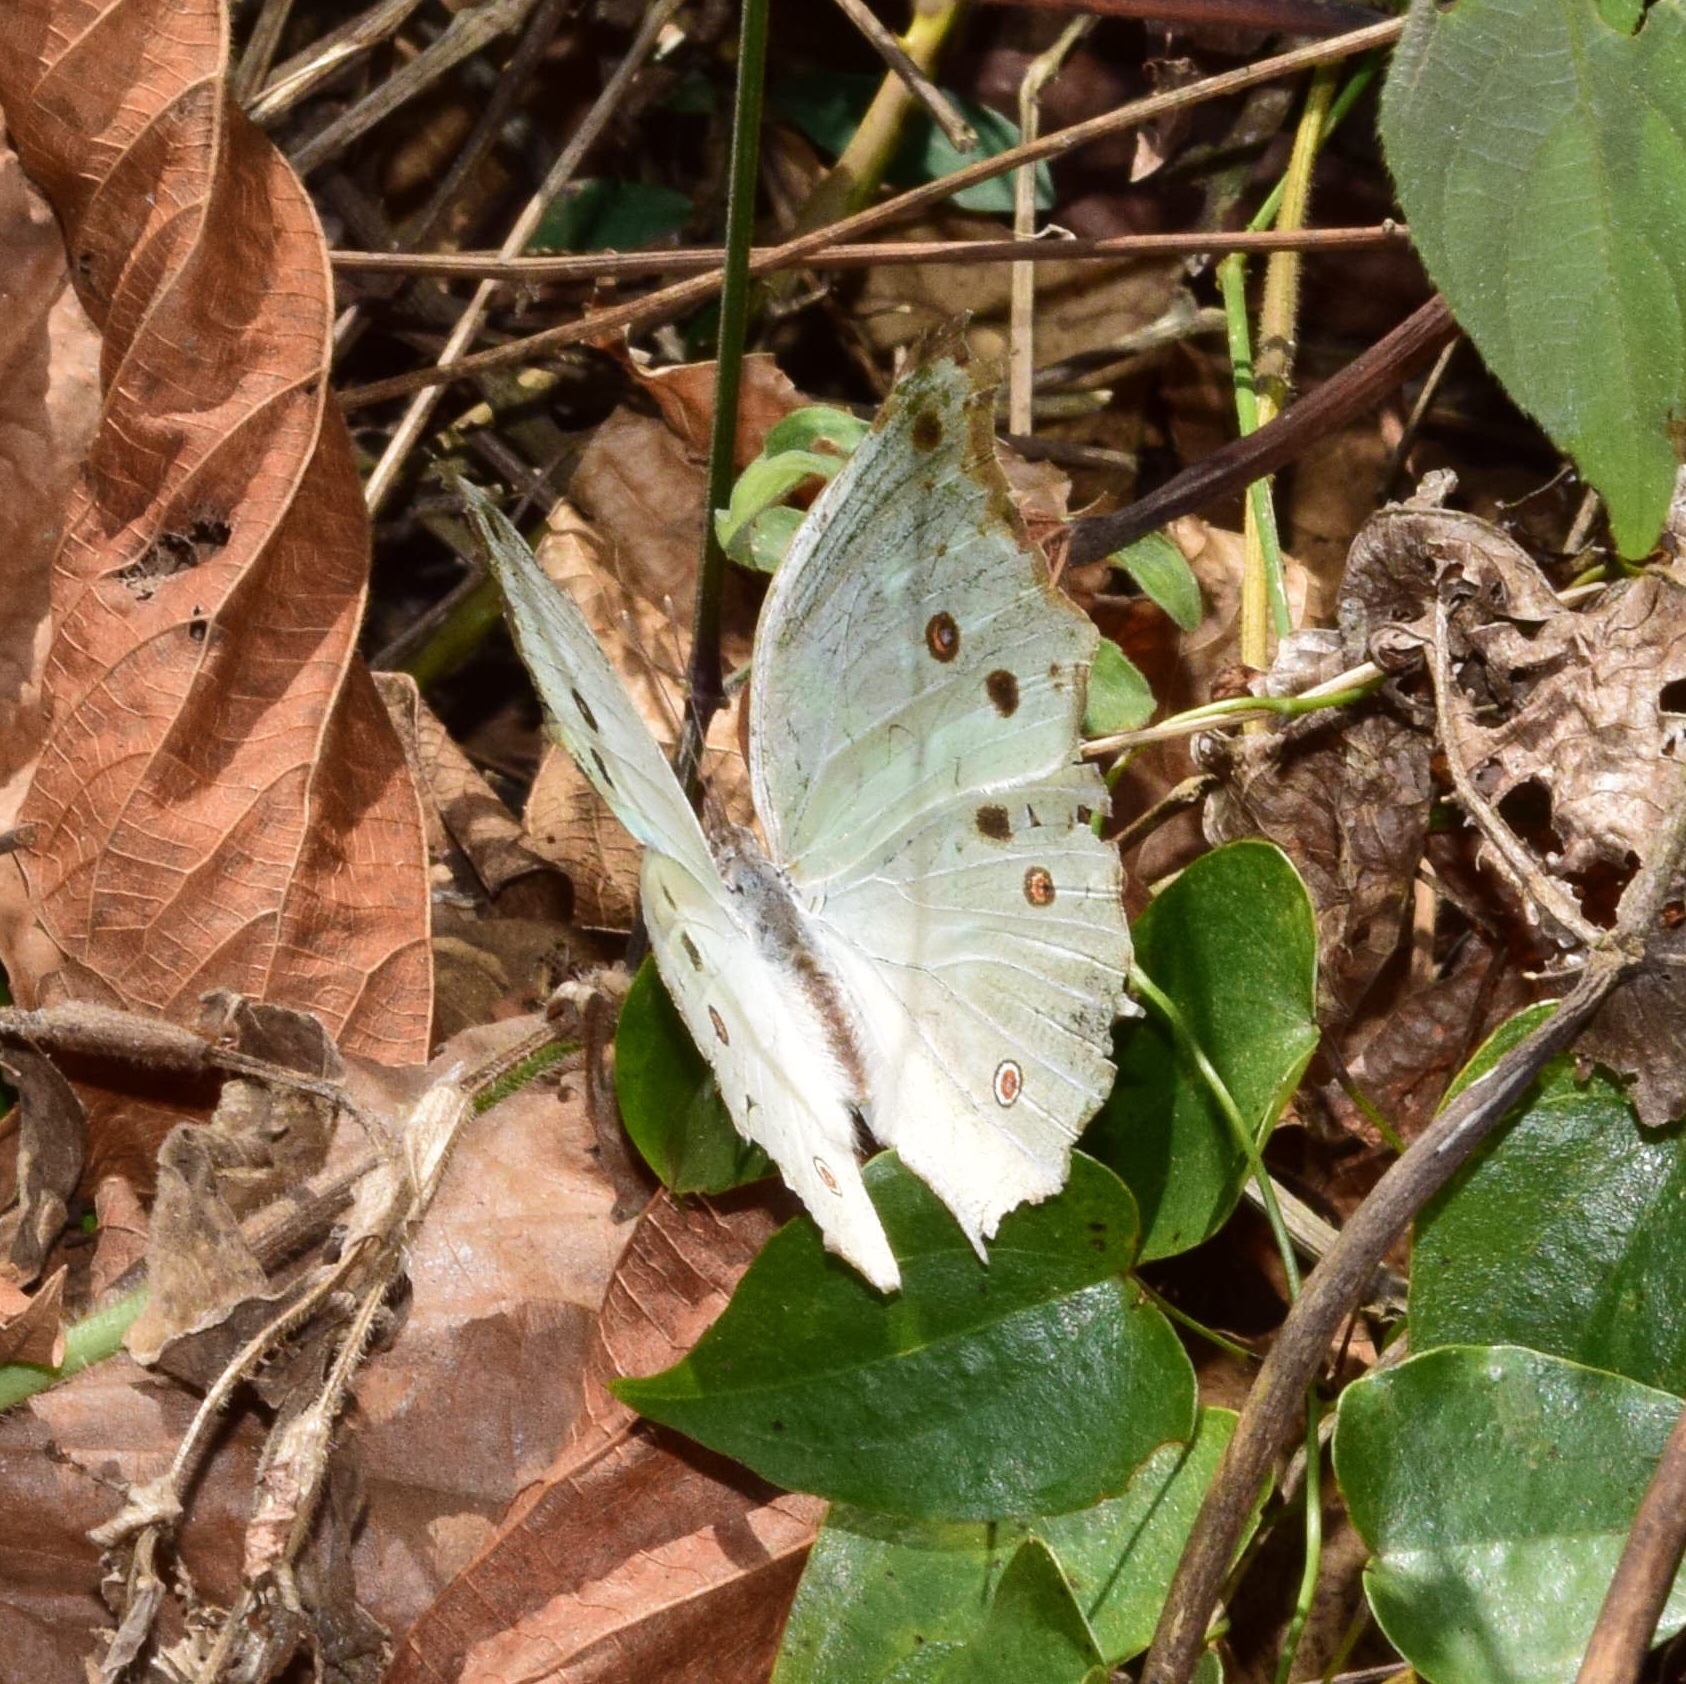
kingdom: Animalia
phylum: Arthropoda
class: Insecta
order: Lepidoptera
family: Nymphalidae
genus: Salamis
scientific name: Salamis Protogoniomorpha parhassus
